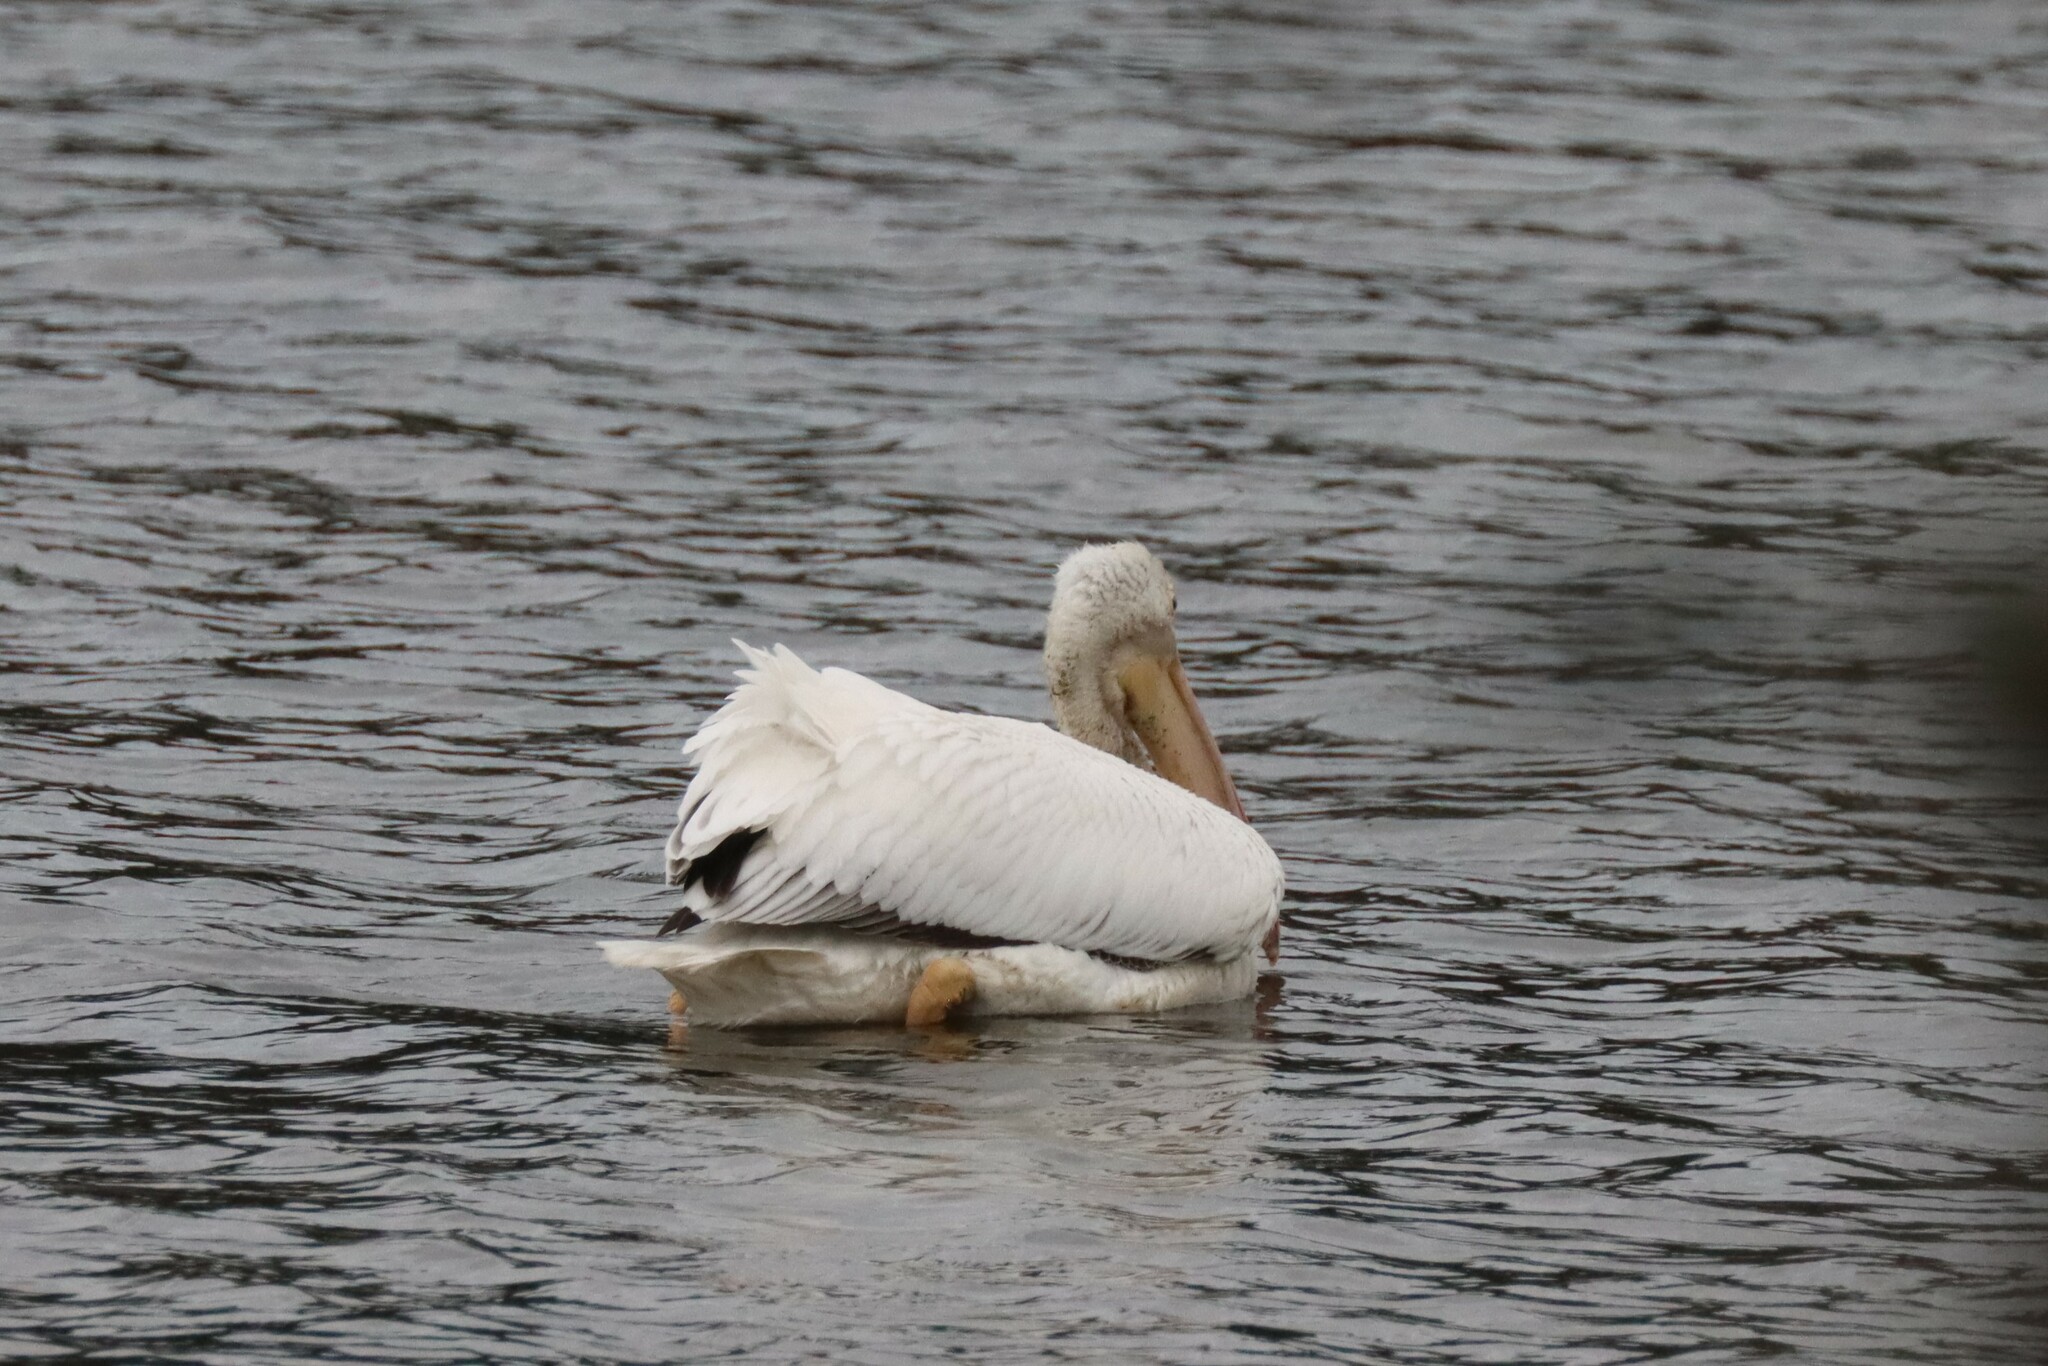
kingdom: Animalia
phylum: Chordata
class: Aves
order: Pelecaniformes
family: Pelecanidae
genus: Pelecanus
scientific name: Pelecanus erythrorhynchos
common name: American white pelican
